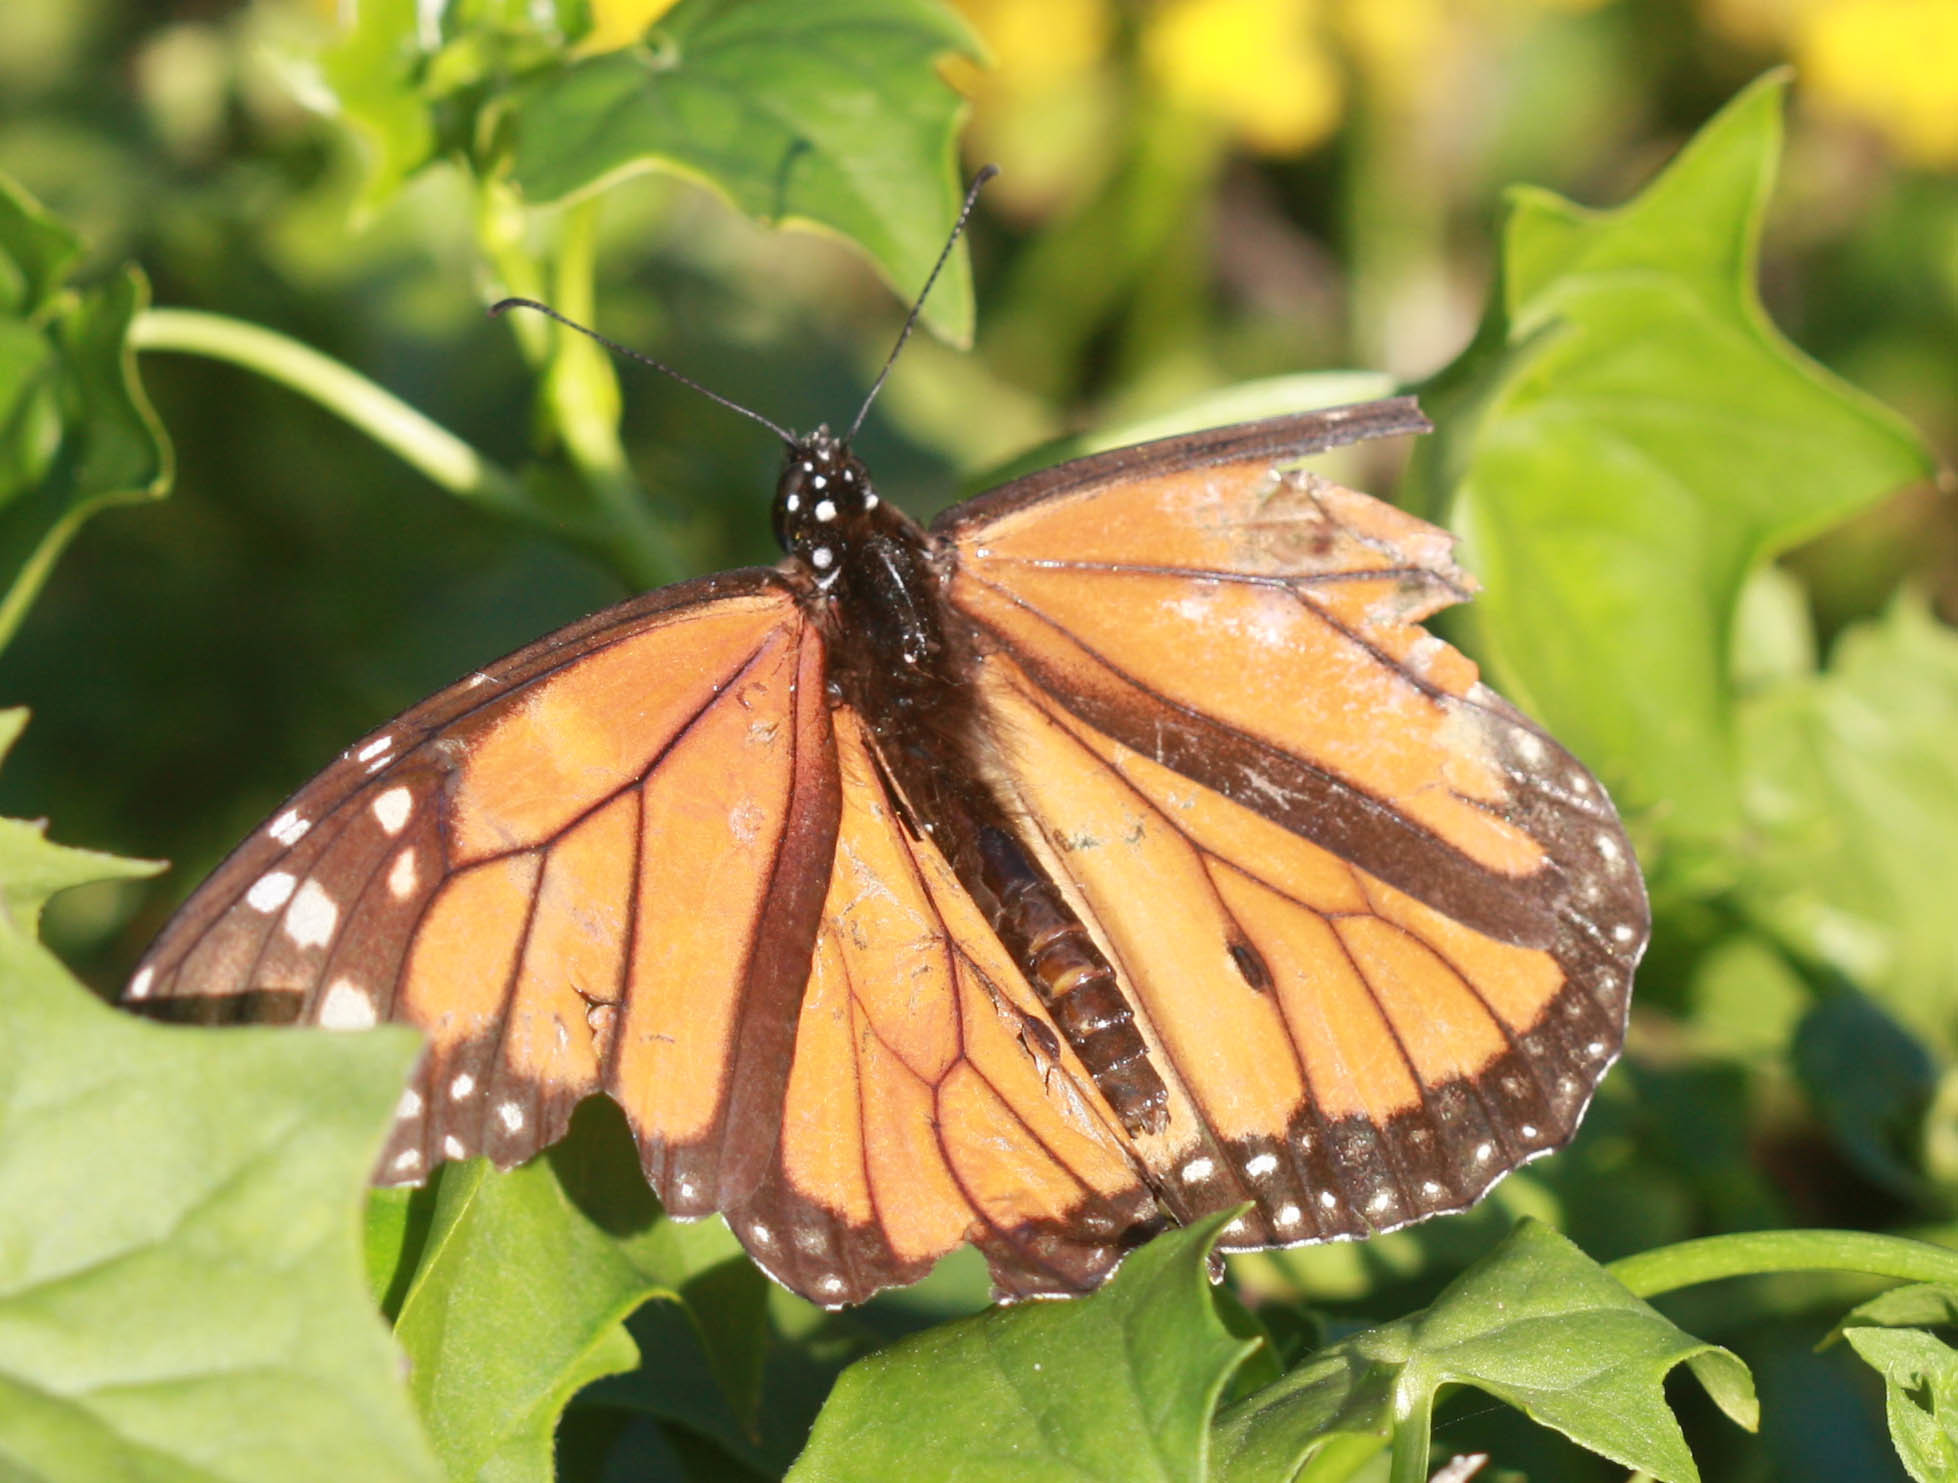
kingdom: Animalia
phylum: Arthropoda
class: Insecta
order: Lepidoptera
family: Nymphalidae
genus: Danaus
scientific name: Danaus plexippus
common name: Monarch
